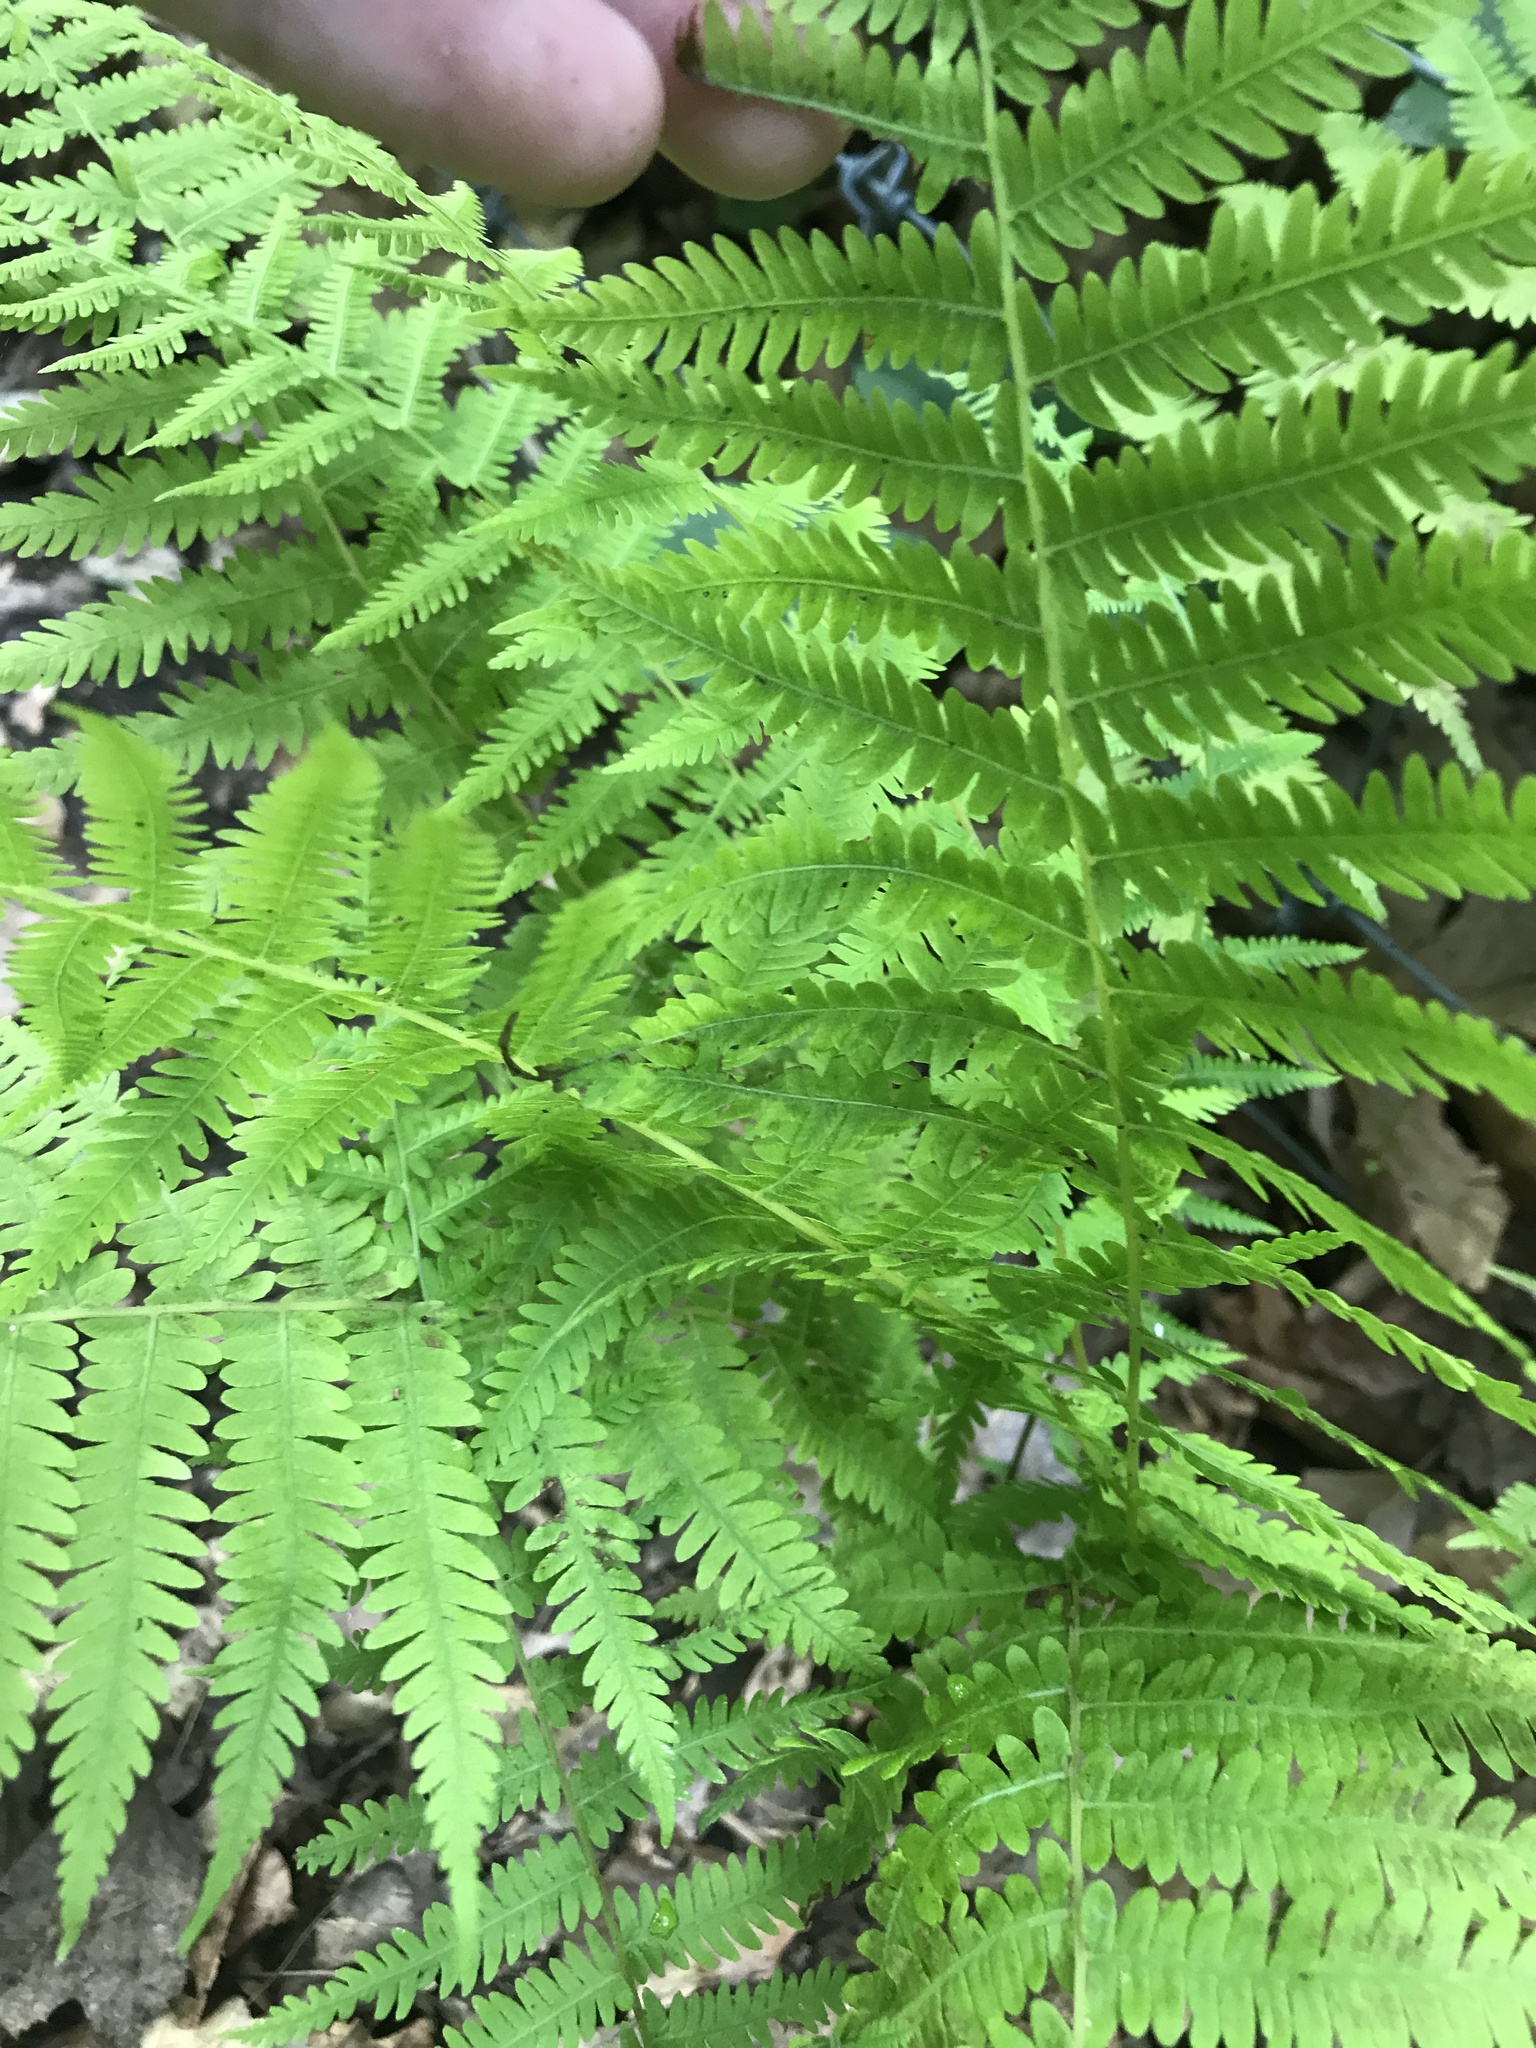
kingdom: Plantae
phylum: Tracheophyta
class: Polypodiopsida
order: Polypodiales
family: Thelypteridaceae
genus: Amauropelta
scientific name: Amauropelta noveboracensis
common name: New york fern
